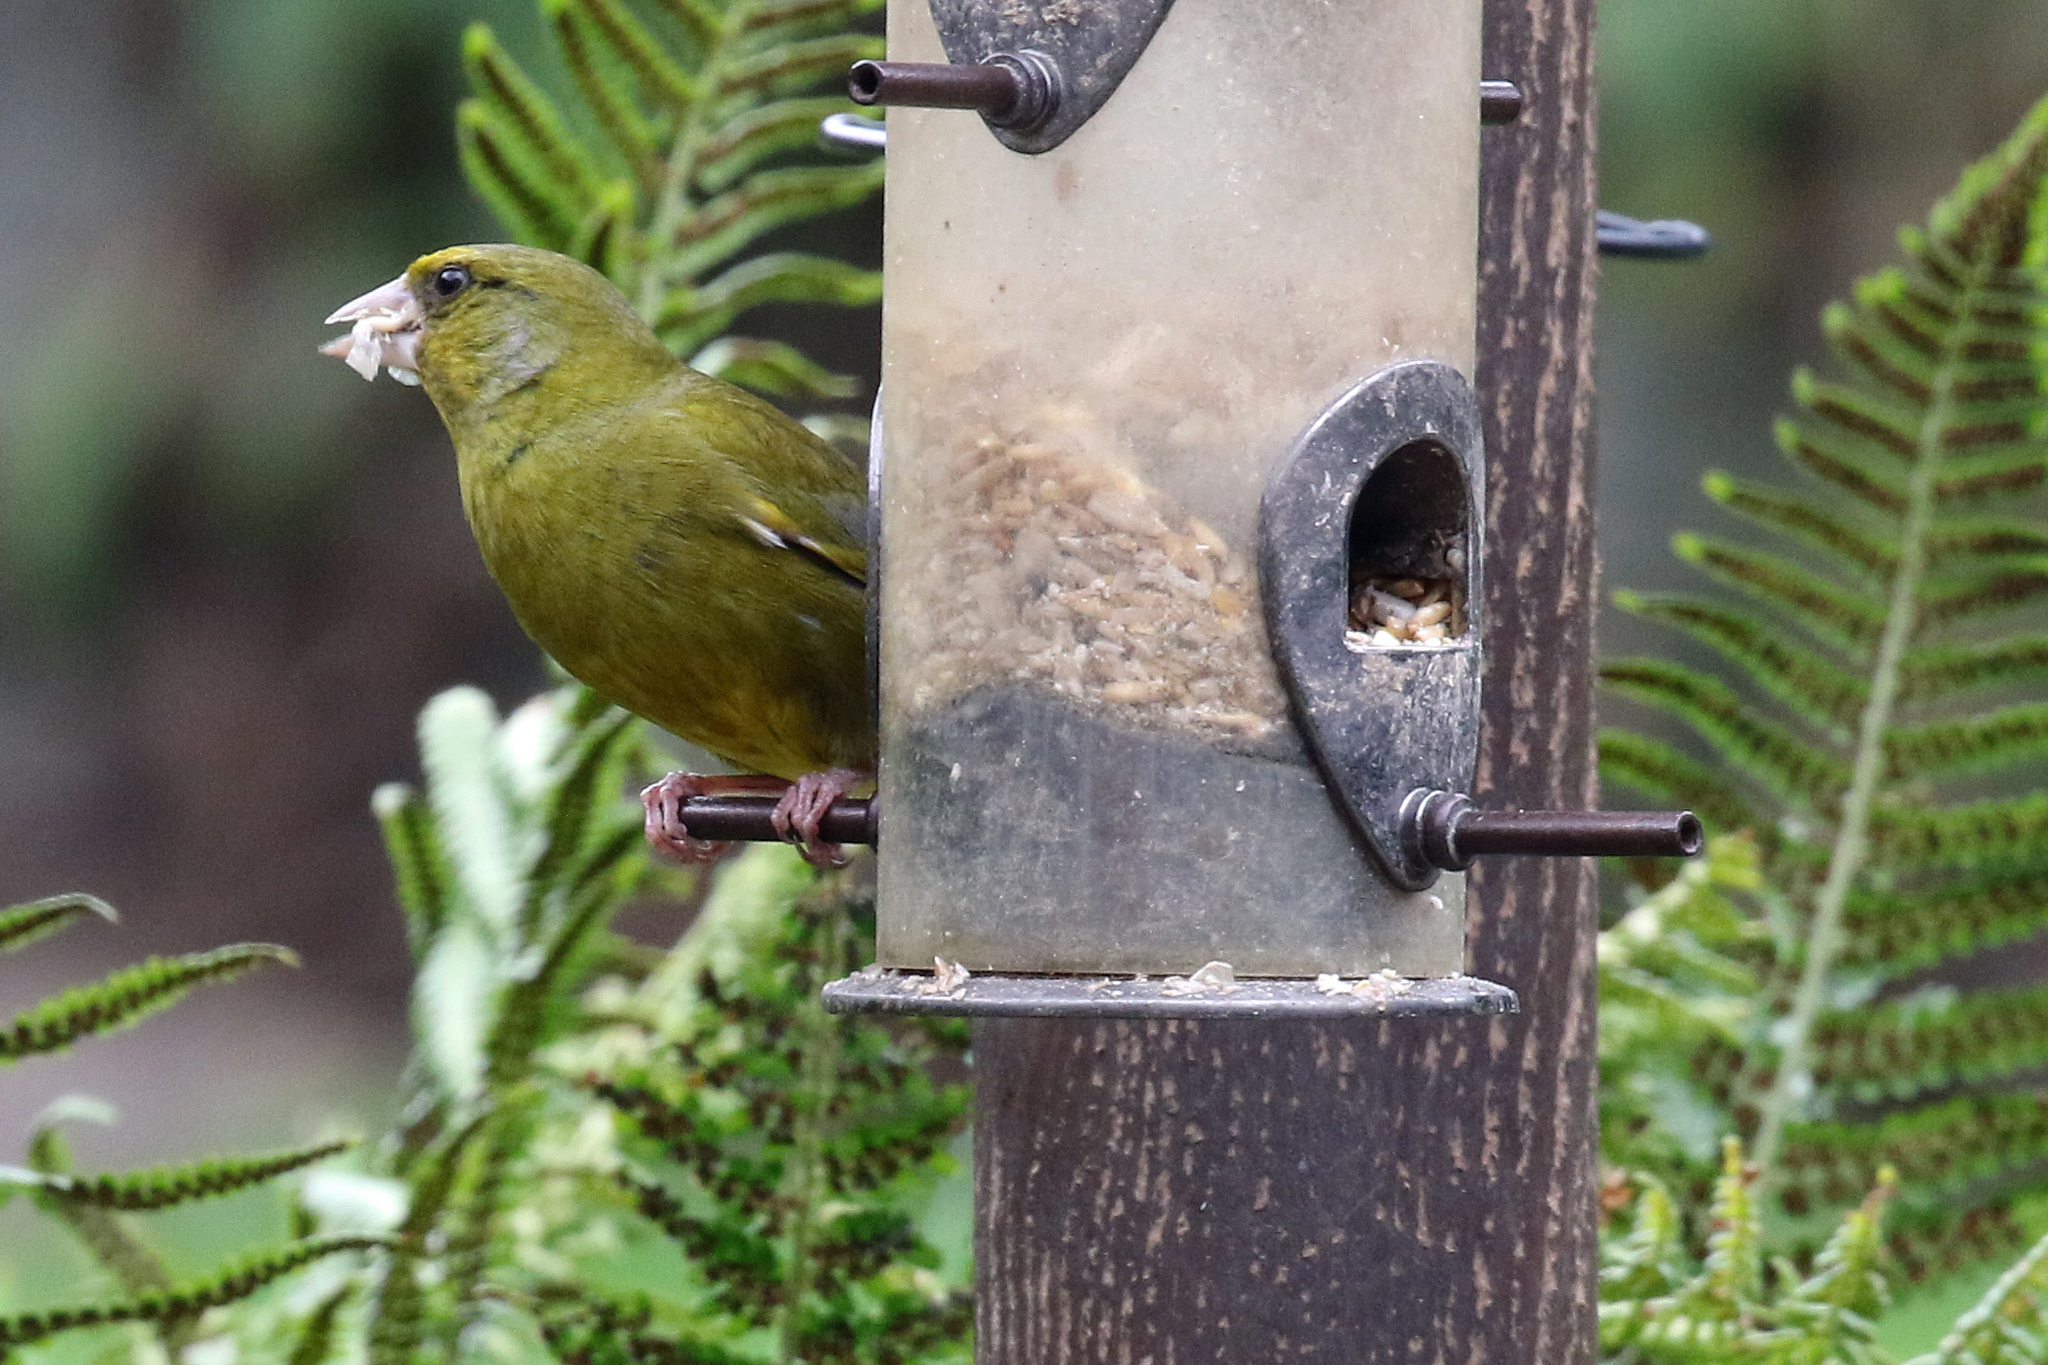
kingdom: Plantae
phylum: Tracheophyta
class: Liliopsida
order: Poales
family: Poaceae
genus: Chloris
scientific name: Chloris chloris
